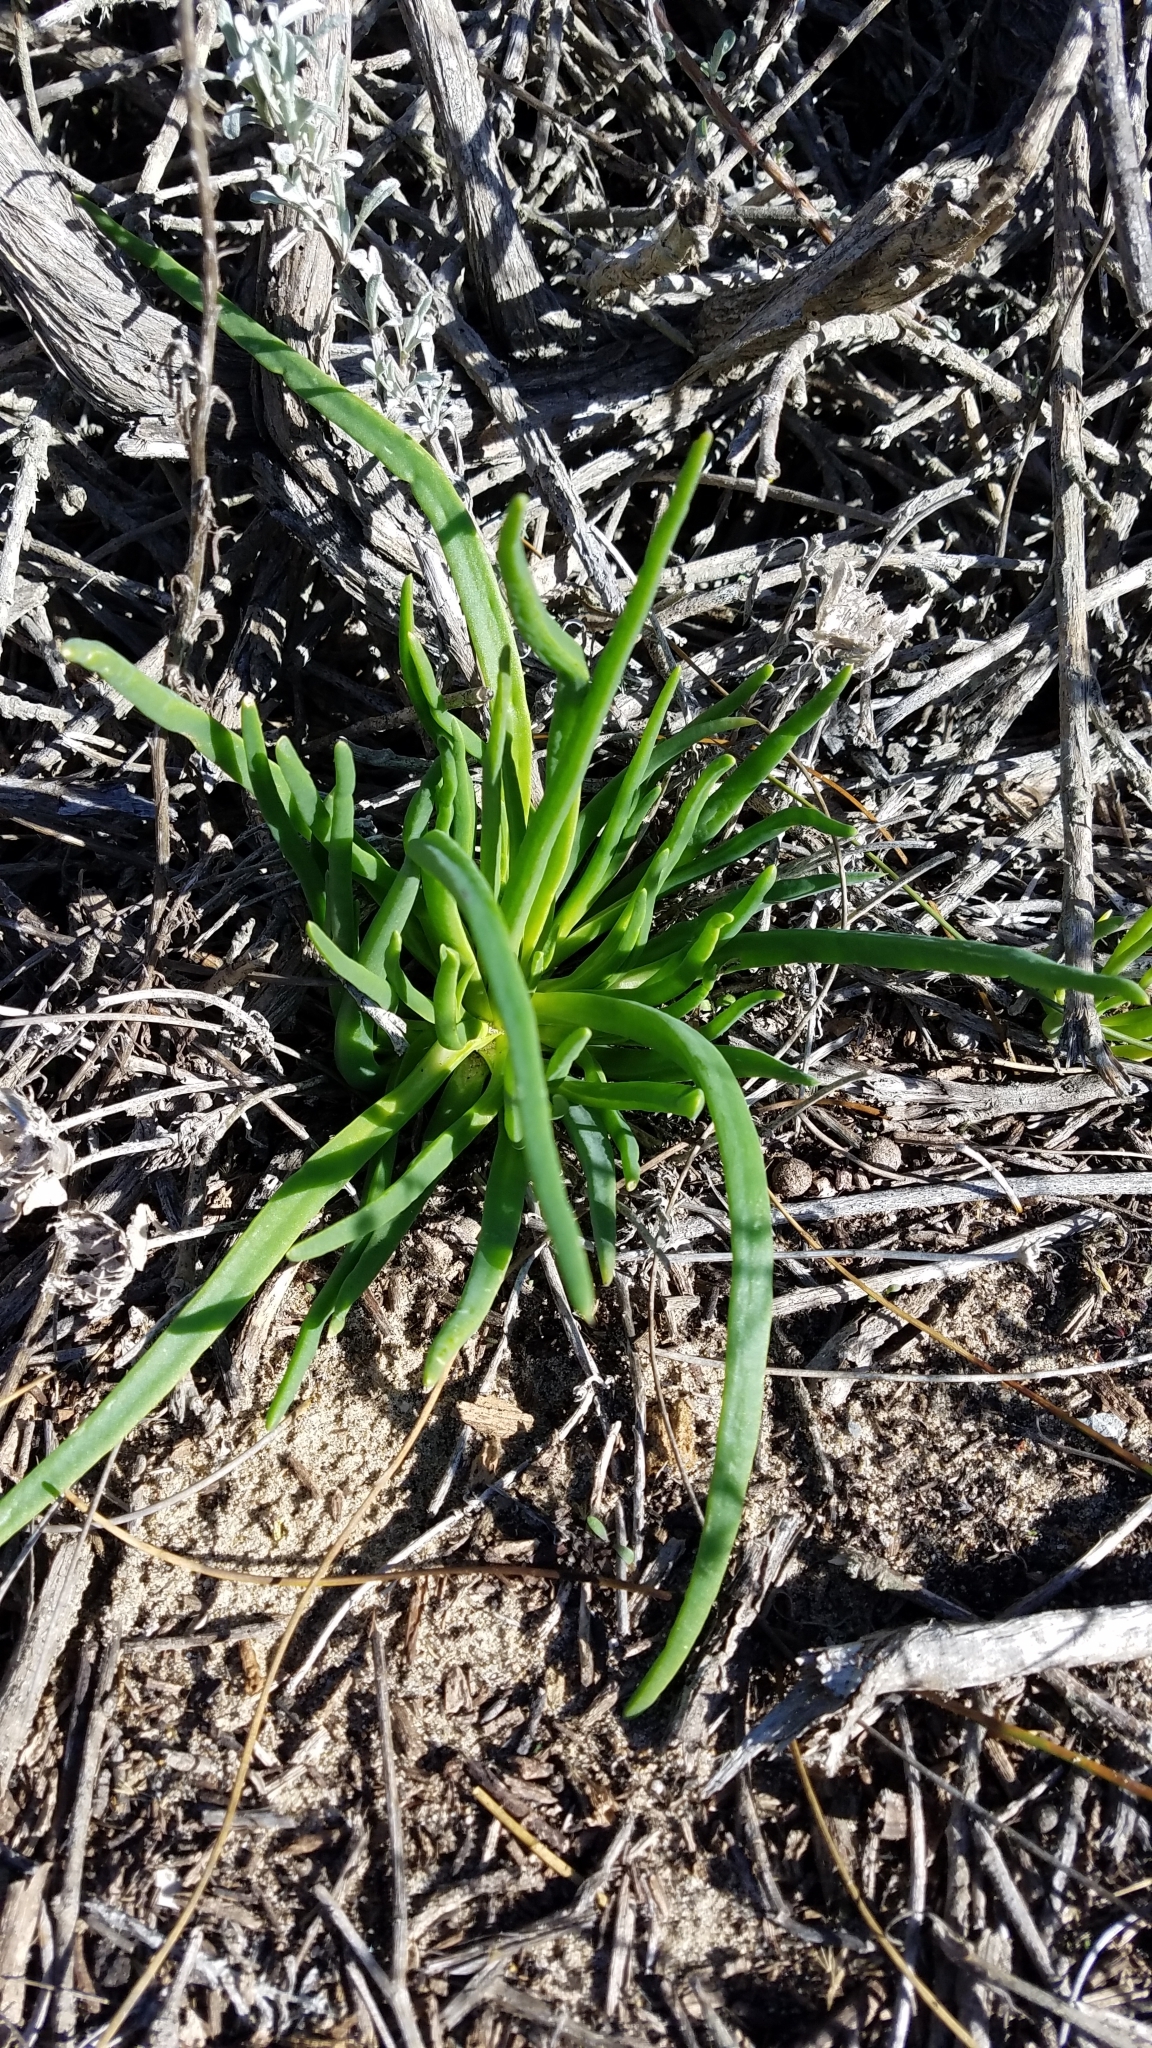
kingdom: Plantae
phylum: Tracheophyta
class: Magnoliopsida
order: Caryophyllales
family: Aizoaceae
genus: Conicosia
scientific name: Conicosia pugioniformis
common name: Narrow-leaved iceplant
